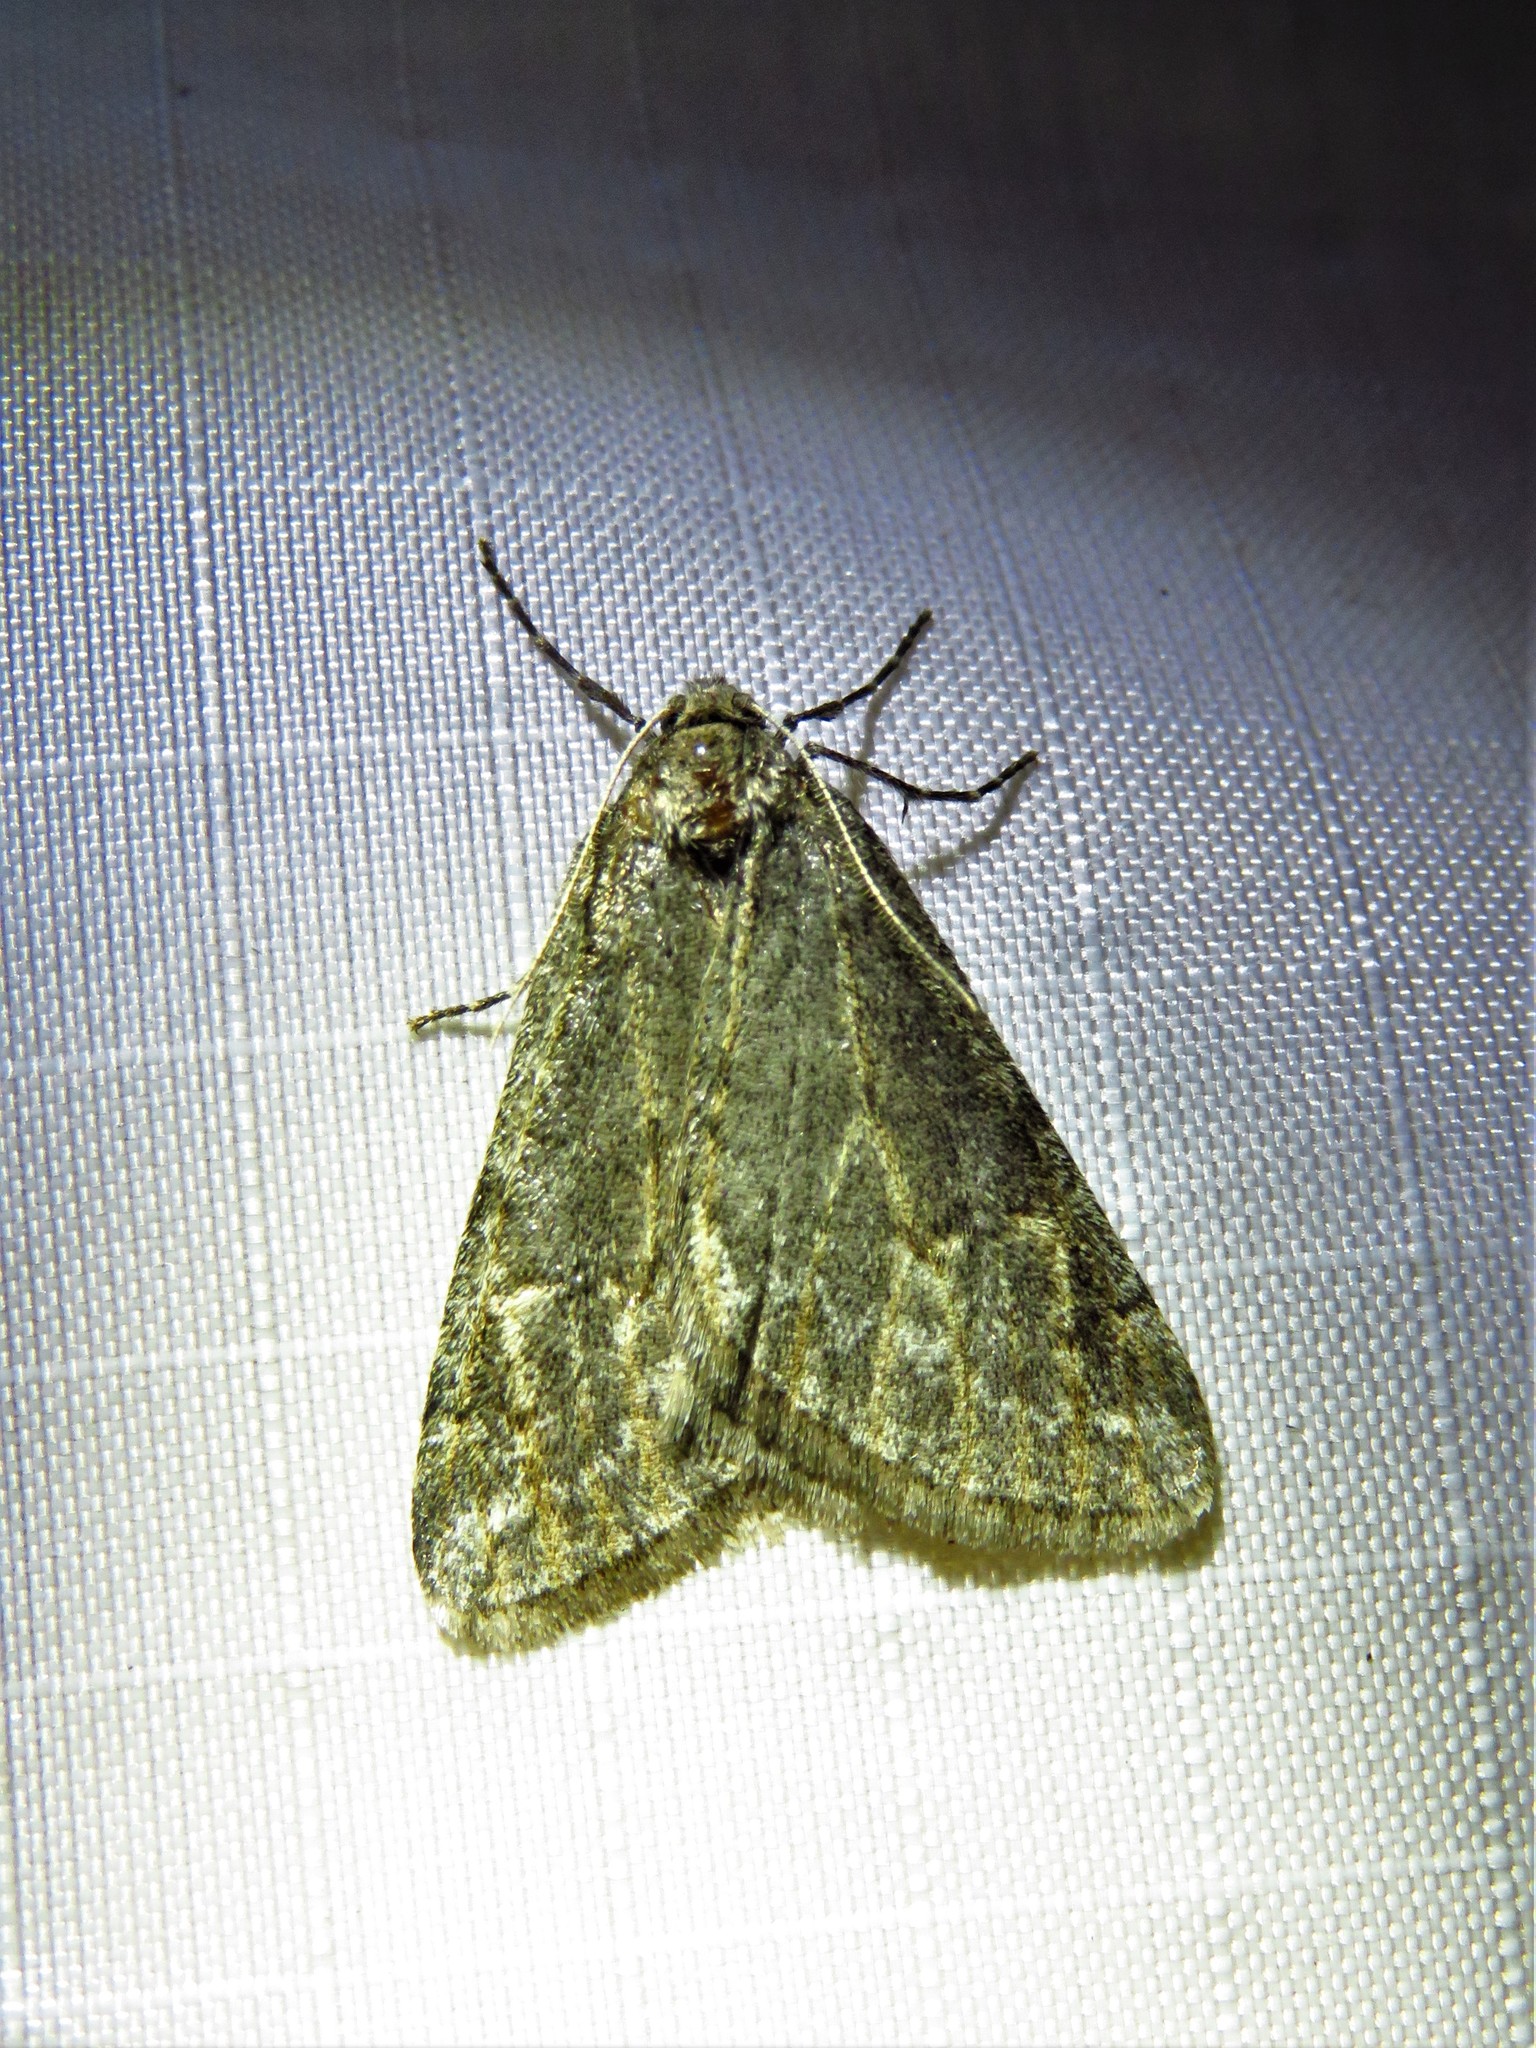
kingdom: Animalia
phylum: Arthropoda
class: Insecta
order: Lepidoptera
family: Geometridae
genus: Paleacrita
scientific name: Paleacrita vernata
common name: Spring cankerworm
